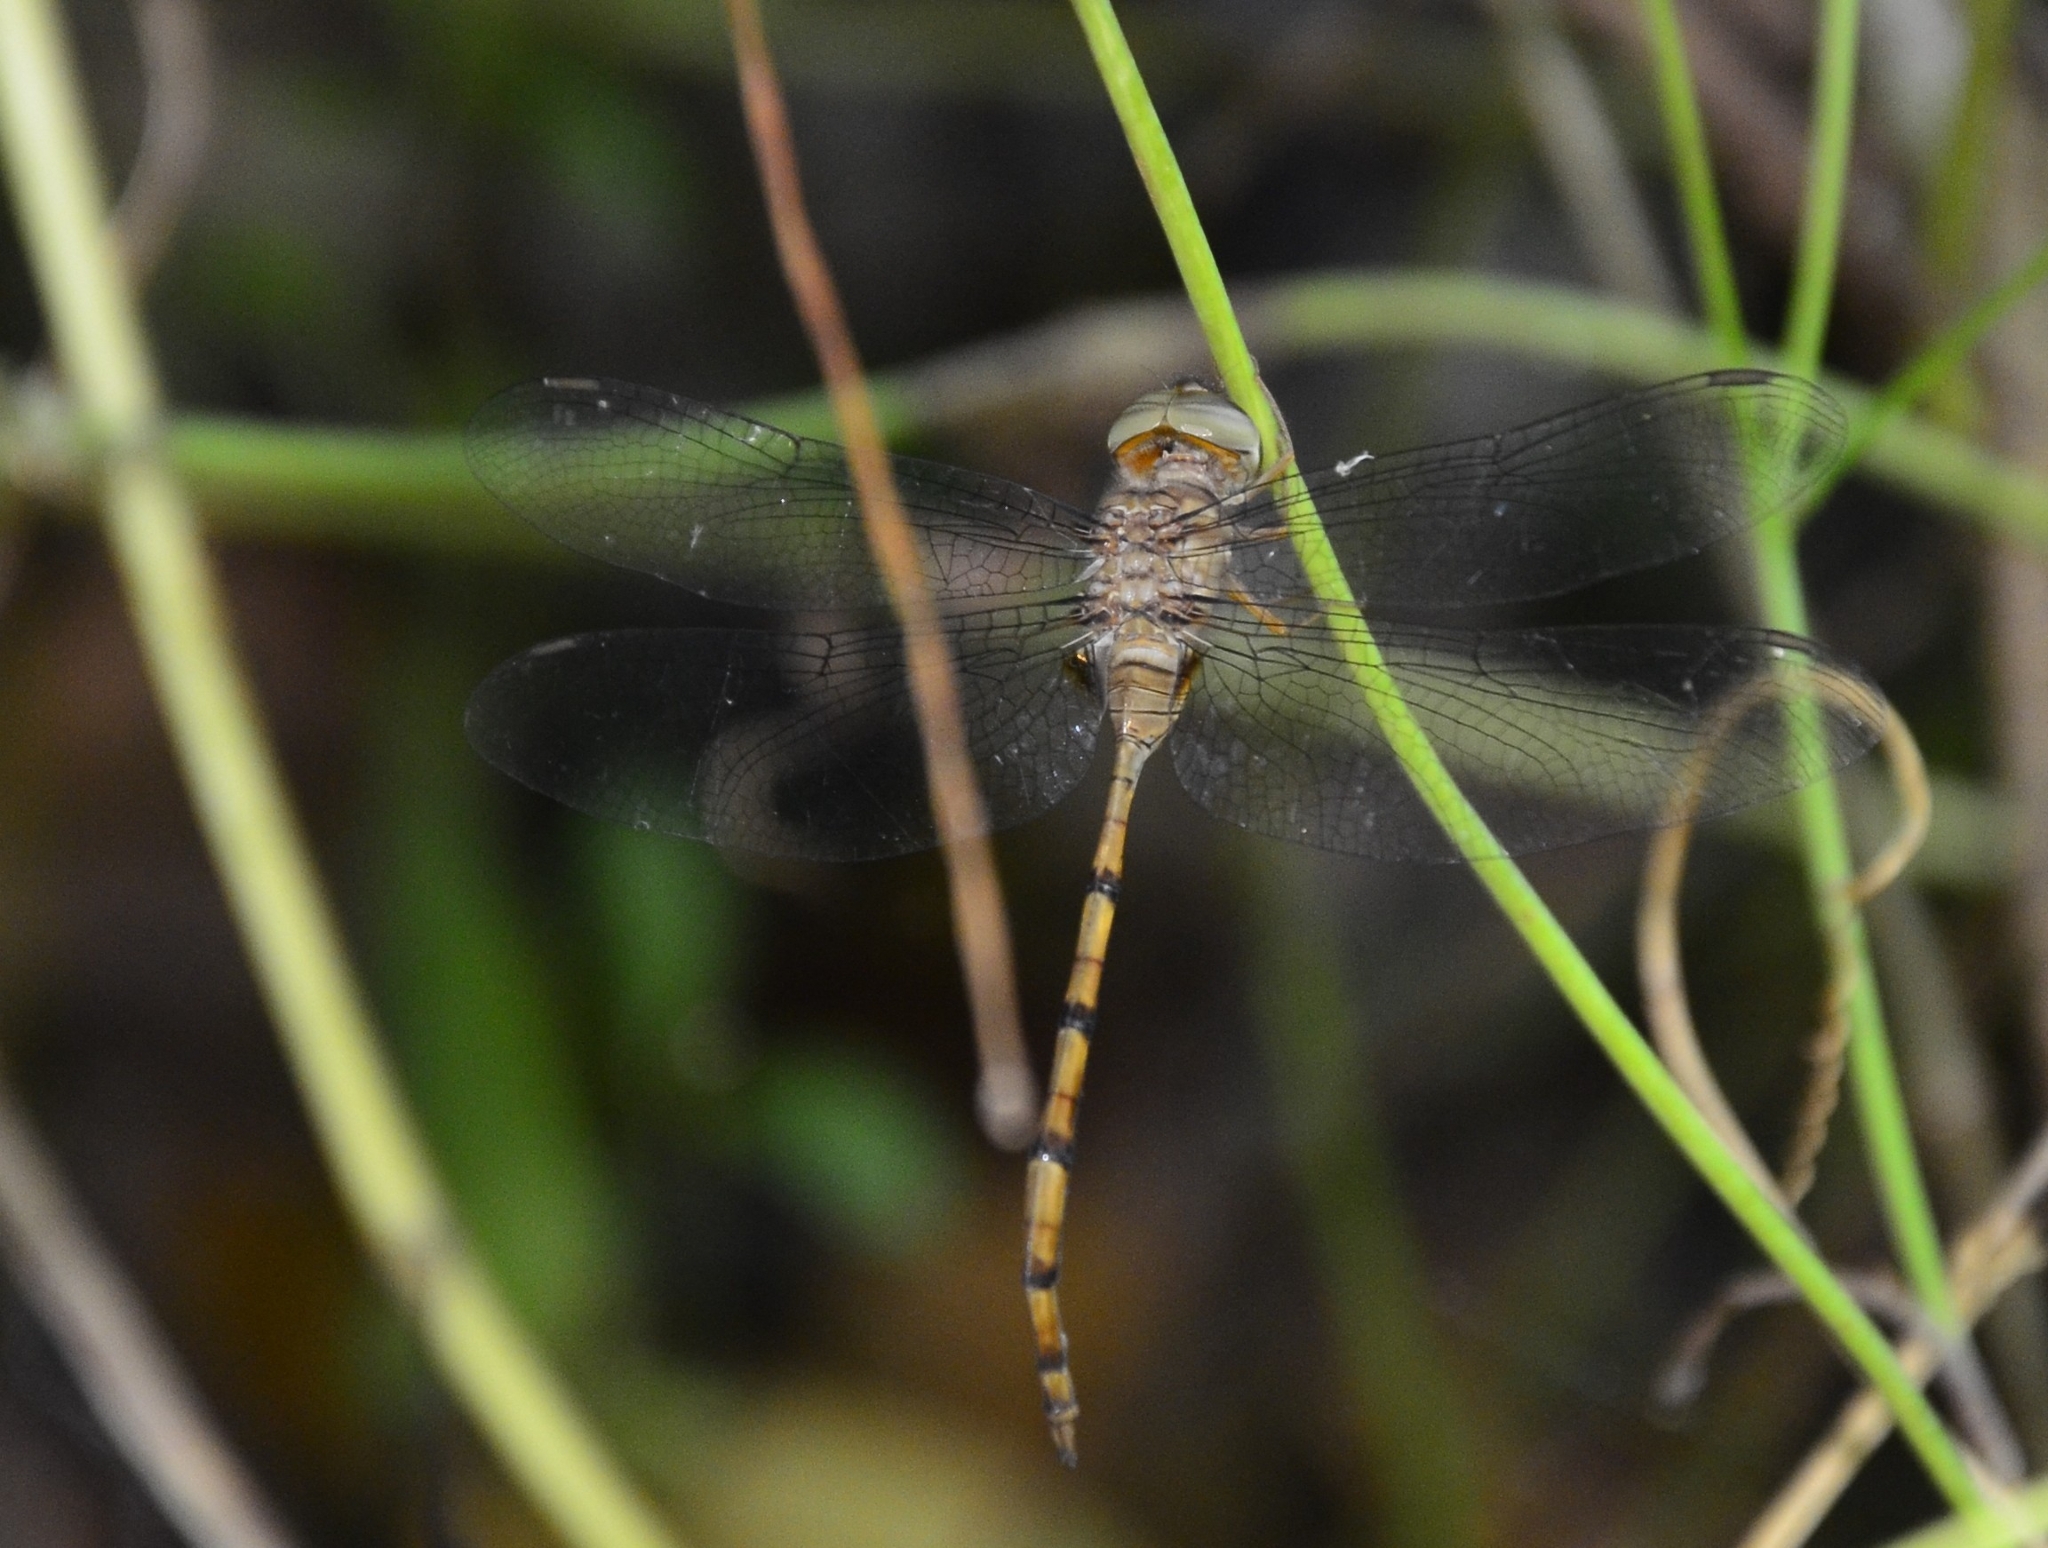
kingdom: Animalia
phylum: Arthropoda
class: Insecta
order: Odonata
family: Libellulidae
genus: Zyxomma
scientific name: Zyxomma petiolatum
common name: Dingy dusk-darter
